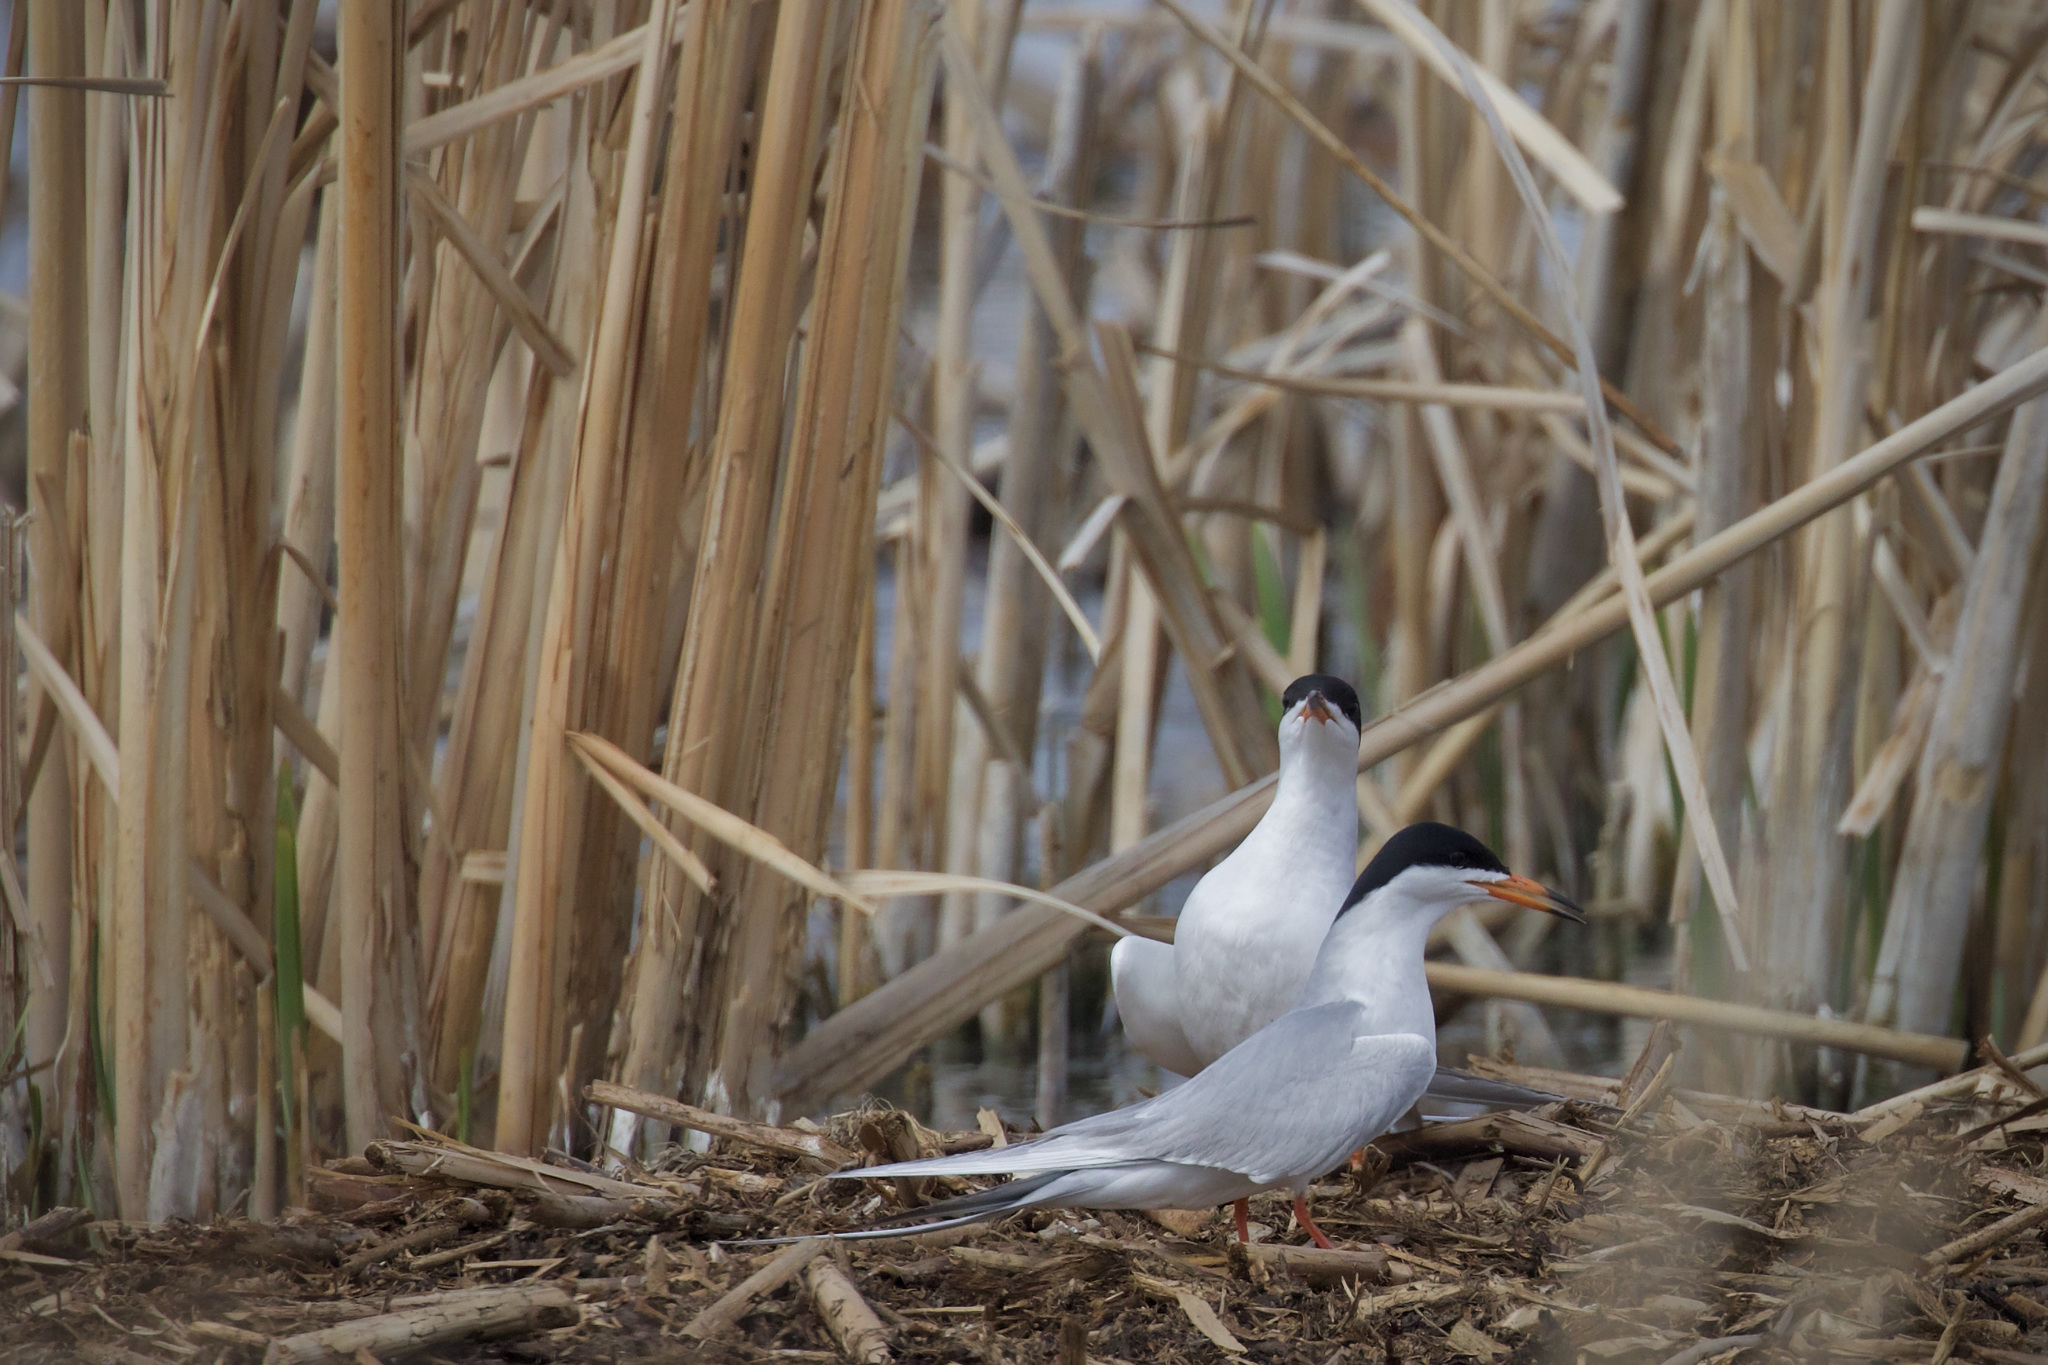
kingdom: Animalia
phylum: Chordata
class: Aves
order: Charadriiformes
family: Laridae
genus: Sterna
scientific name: Sterna forsteri
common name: Forster's tern
